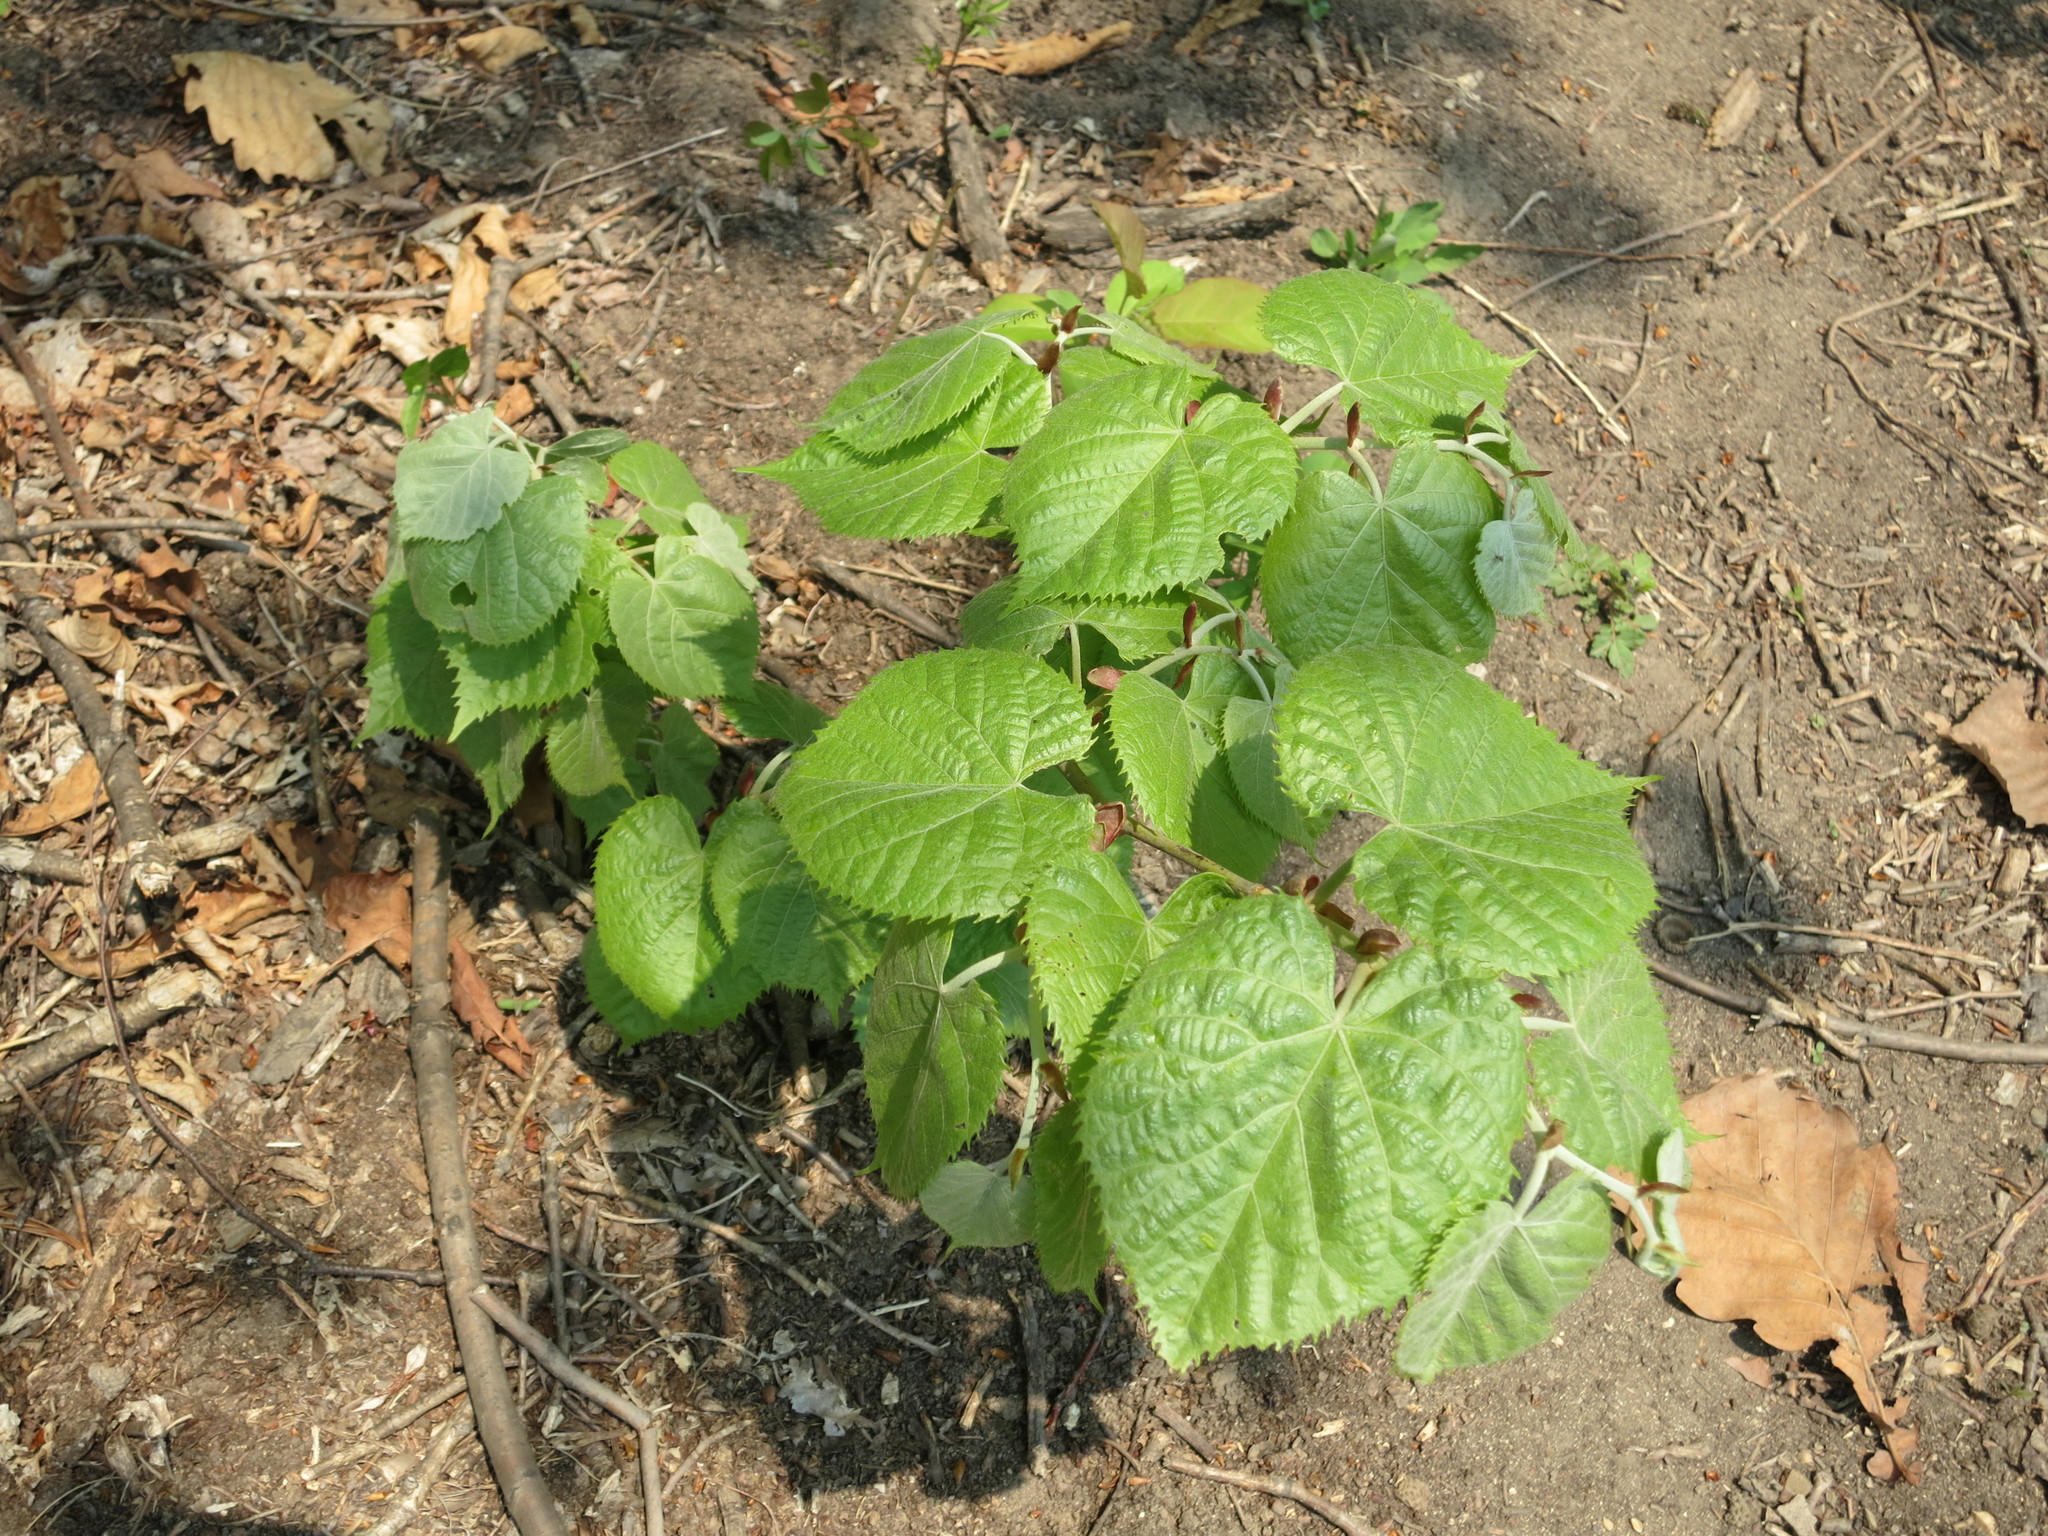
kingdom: Plantae
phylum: Tracheophyta
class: Magnoliopsida
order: Malvales
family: Malvaceae
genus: Tilia
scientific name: Tilia mandshurica
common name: Manchurian linden
